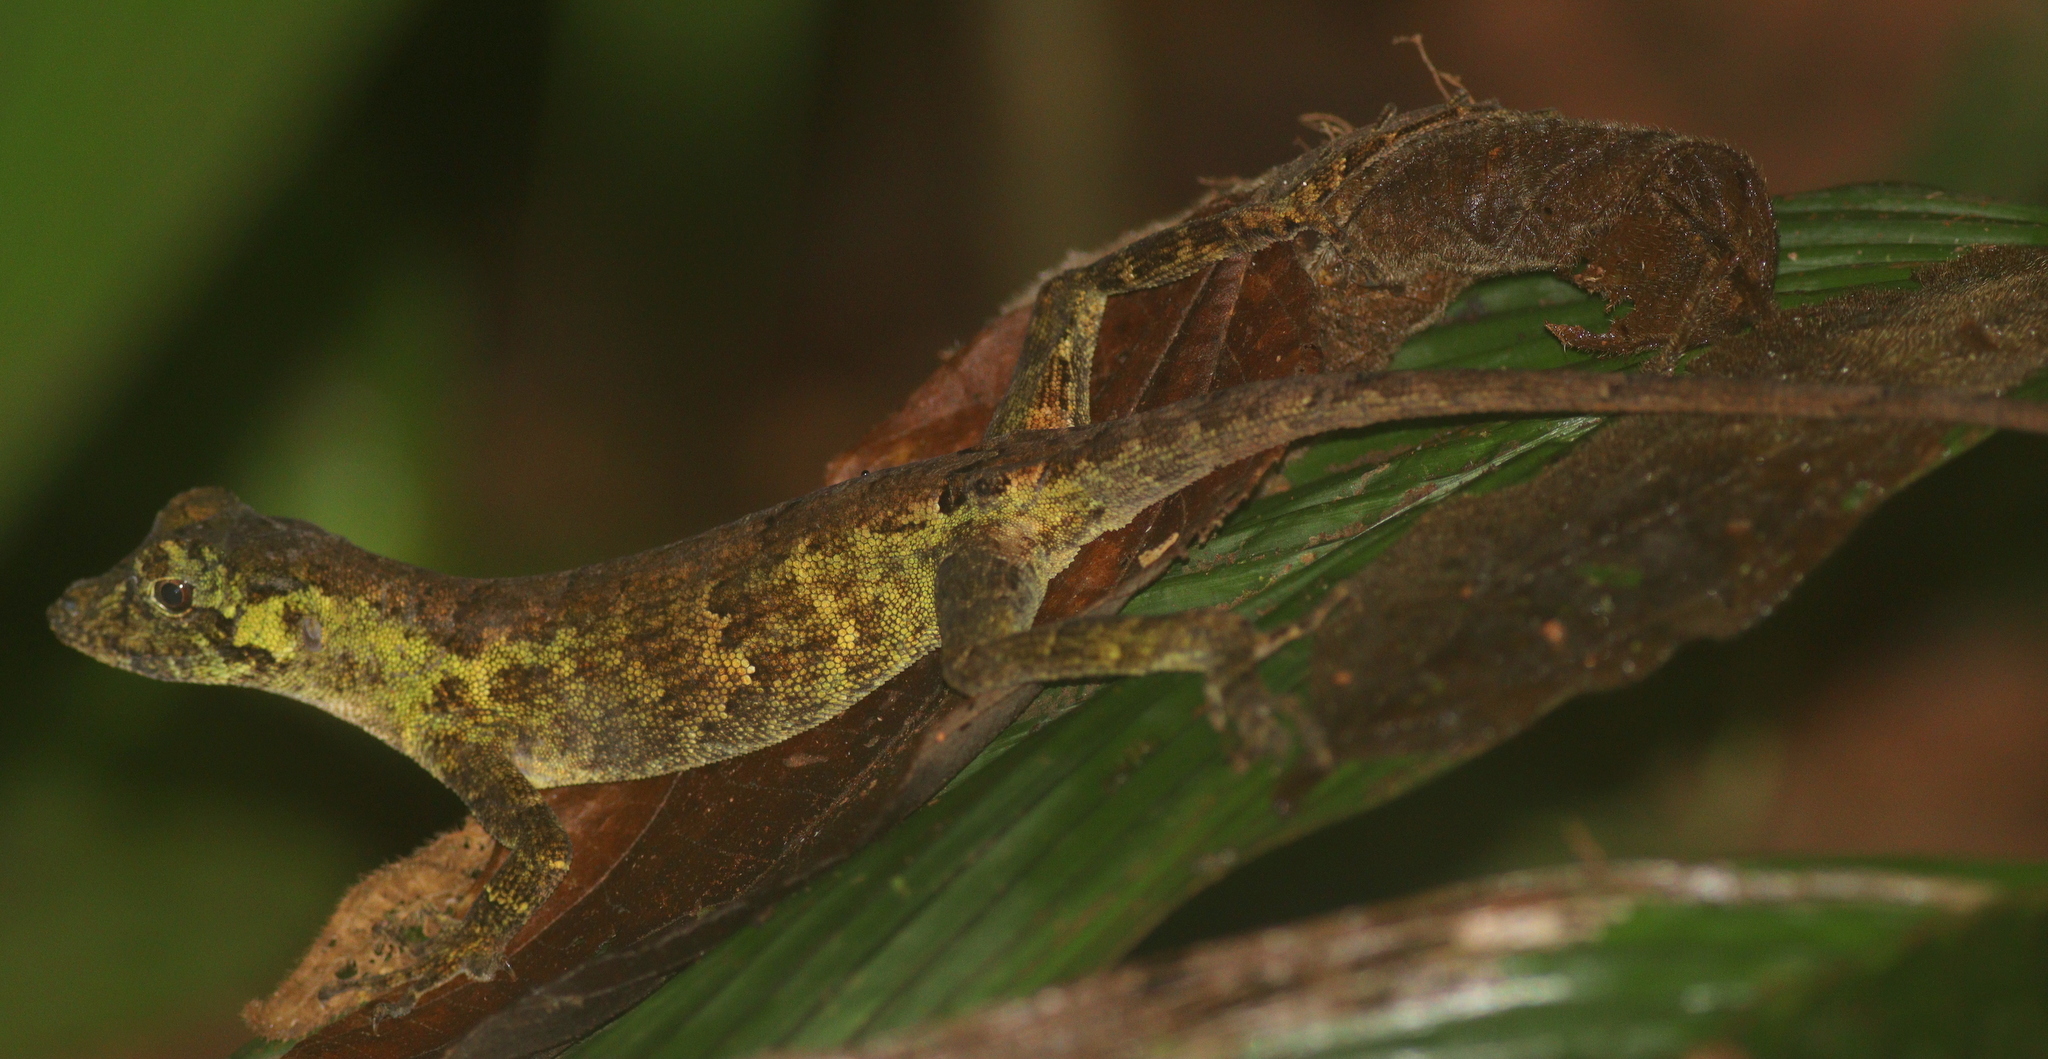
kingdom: Animalia
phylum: Chordata
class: Squamata
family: Dactyloidae
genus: Anolis
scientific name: Anolis capito
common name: Bighead anole
